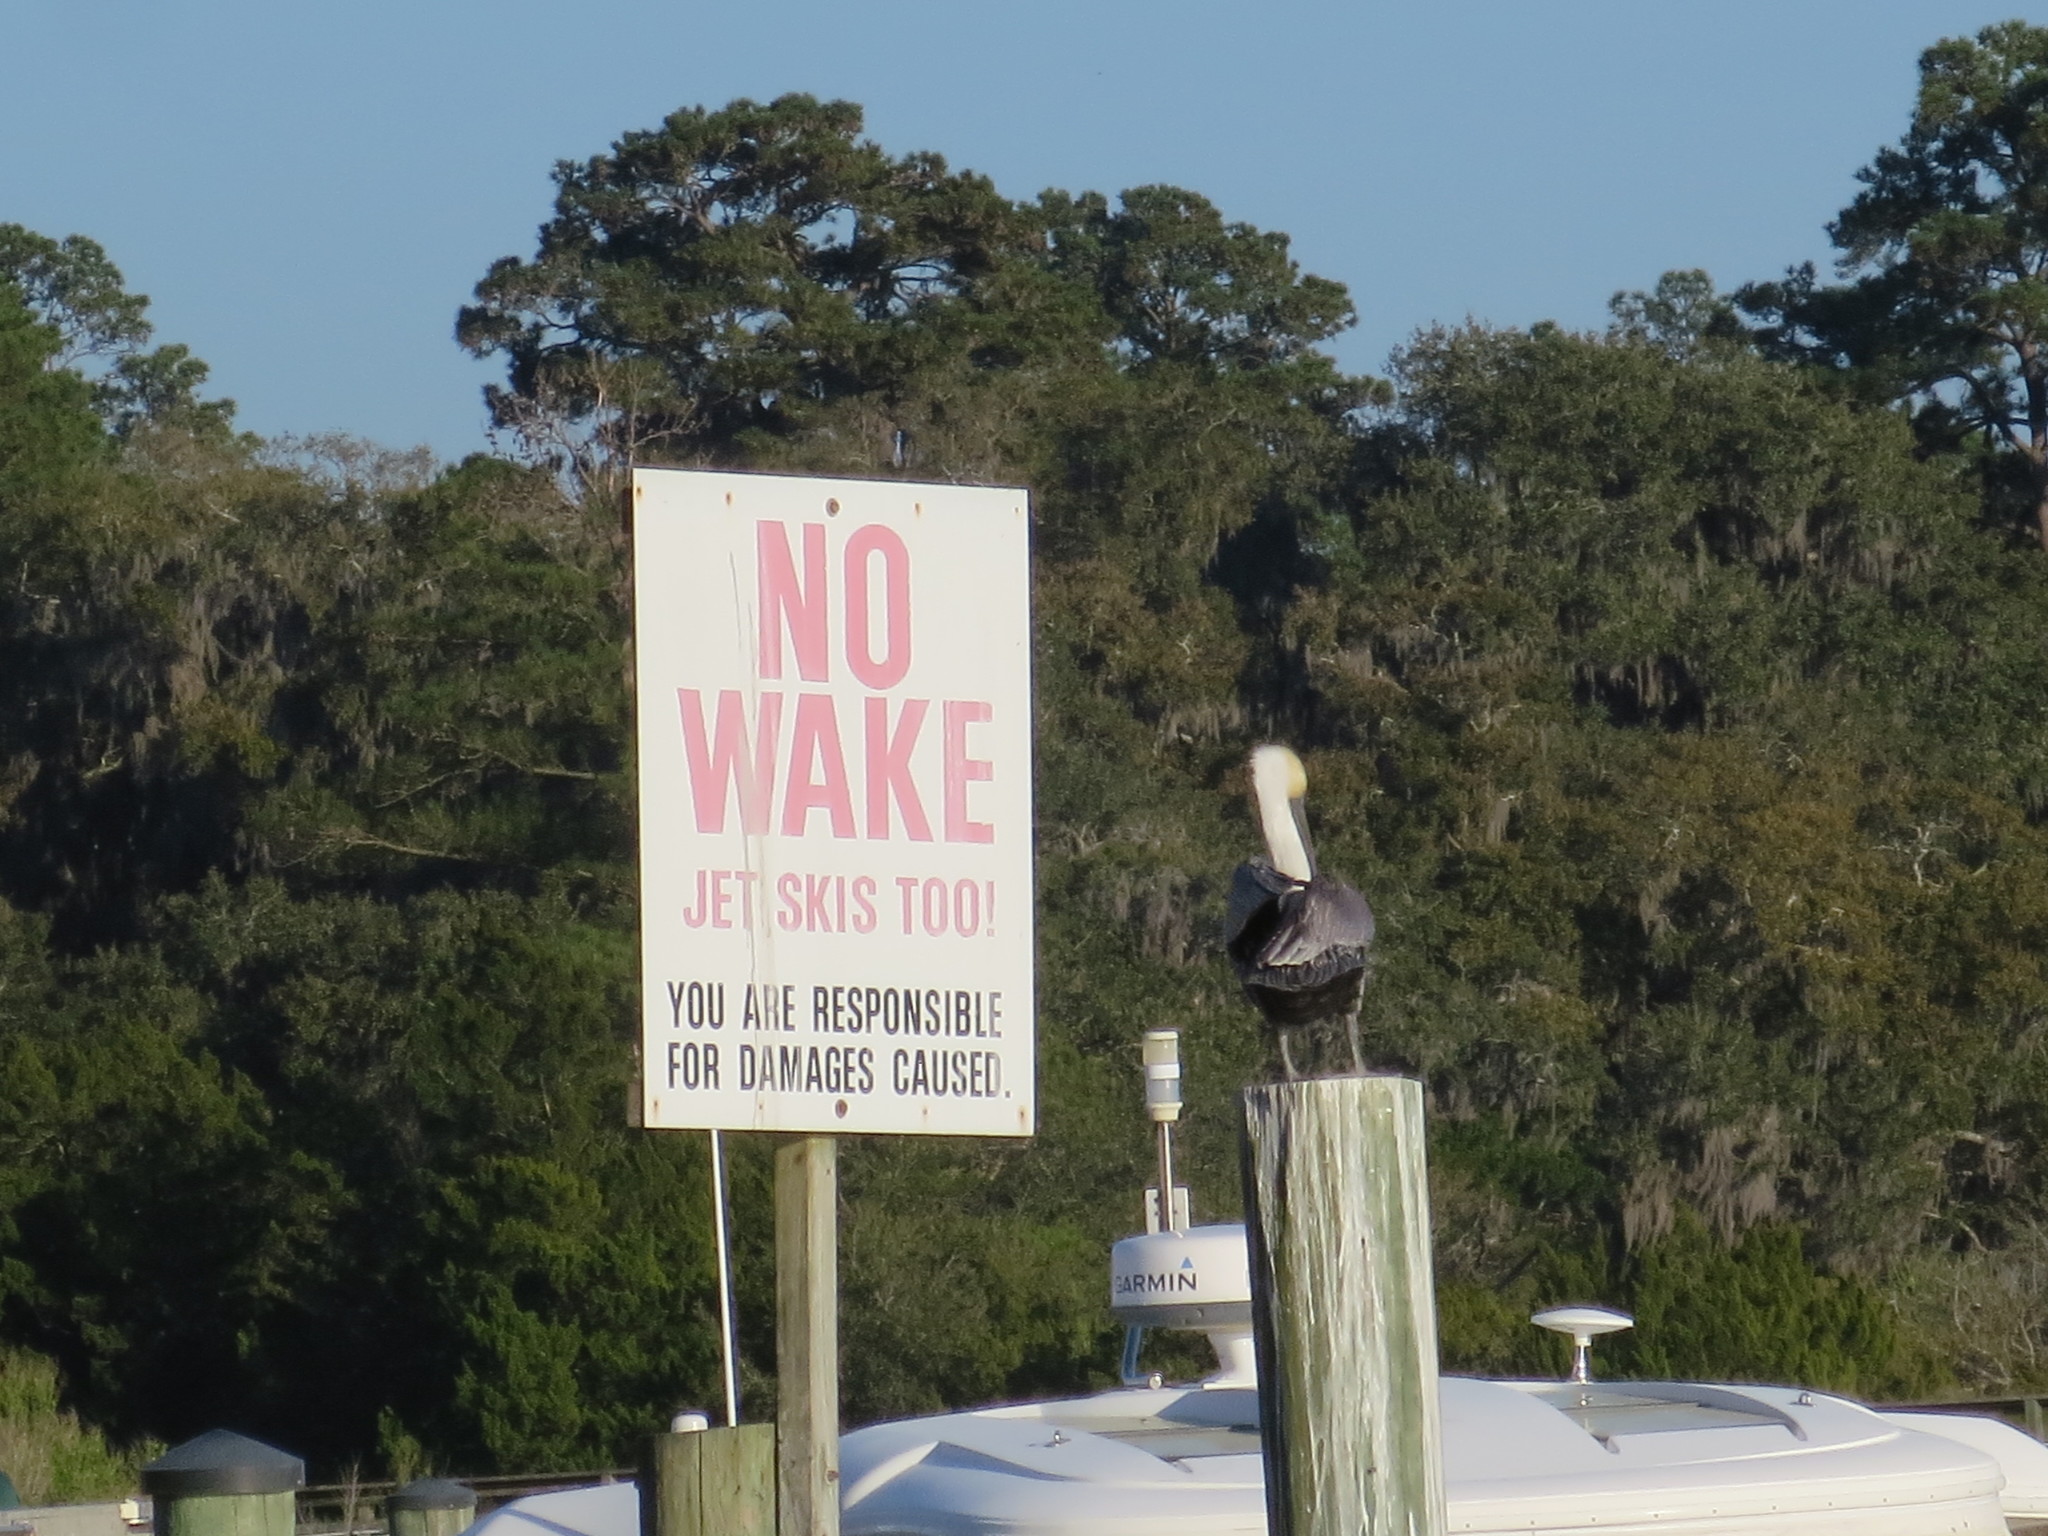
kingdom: Animalia
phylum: Chordata
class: Aves
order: Pelecaniformes
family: Pelecanidae
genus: Pelecanus
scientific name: Pelecanus occidentalis
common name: Brown pelican
